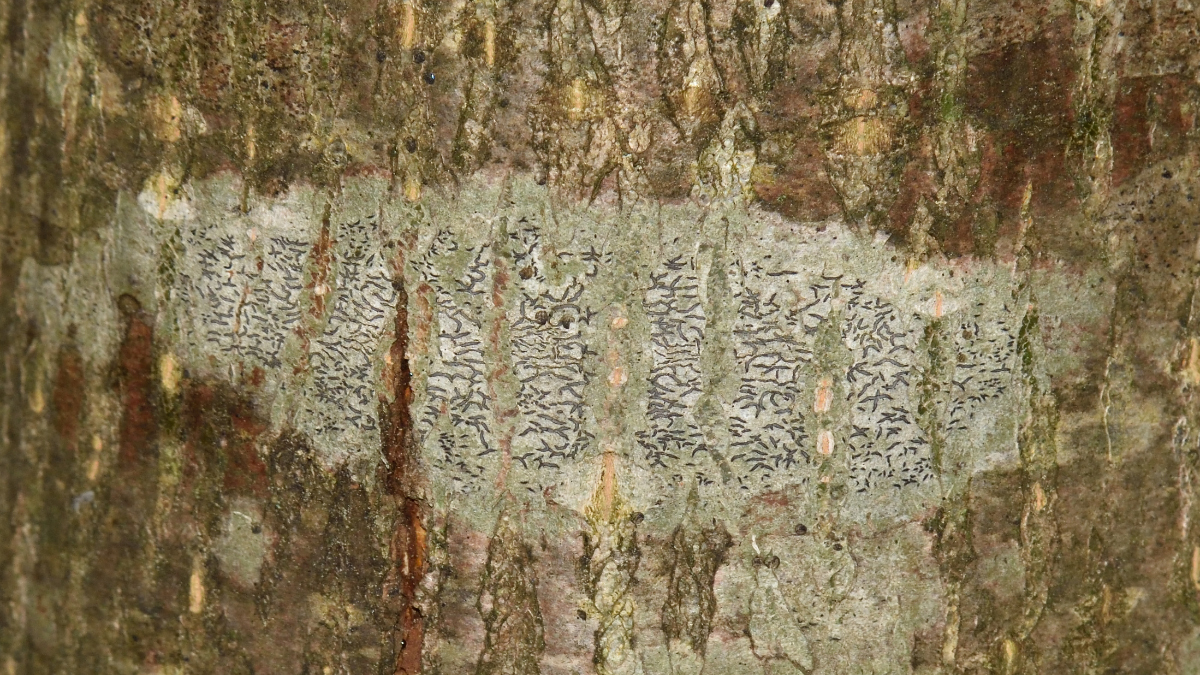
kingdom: Fungi
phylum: Ascomycota
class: Lecanoromycetes
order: Ostropales
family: Graphidaceae
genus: Graphis
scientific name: Graphis scripta
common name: Script lichen
